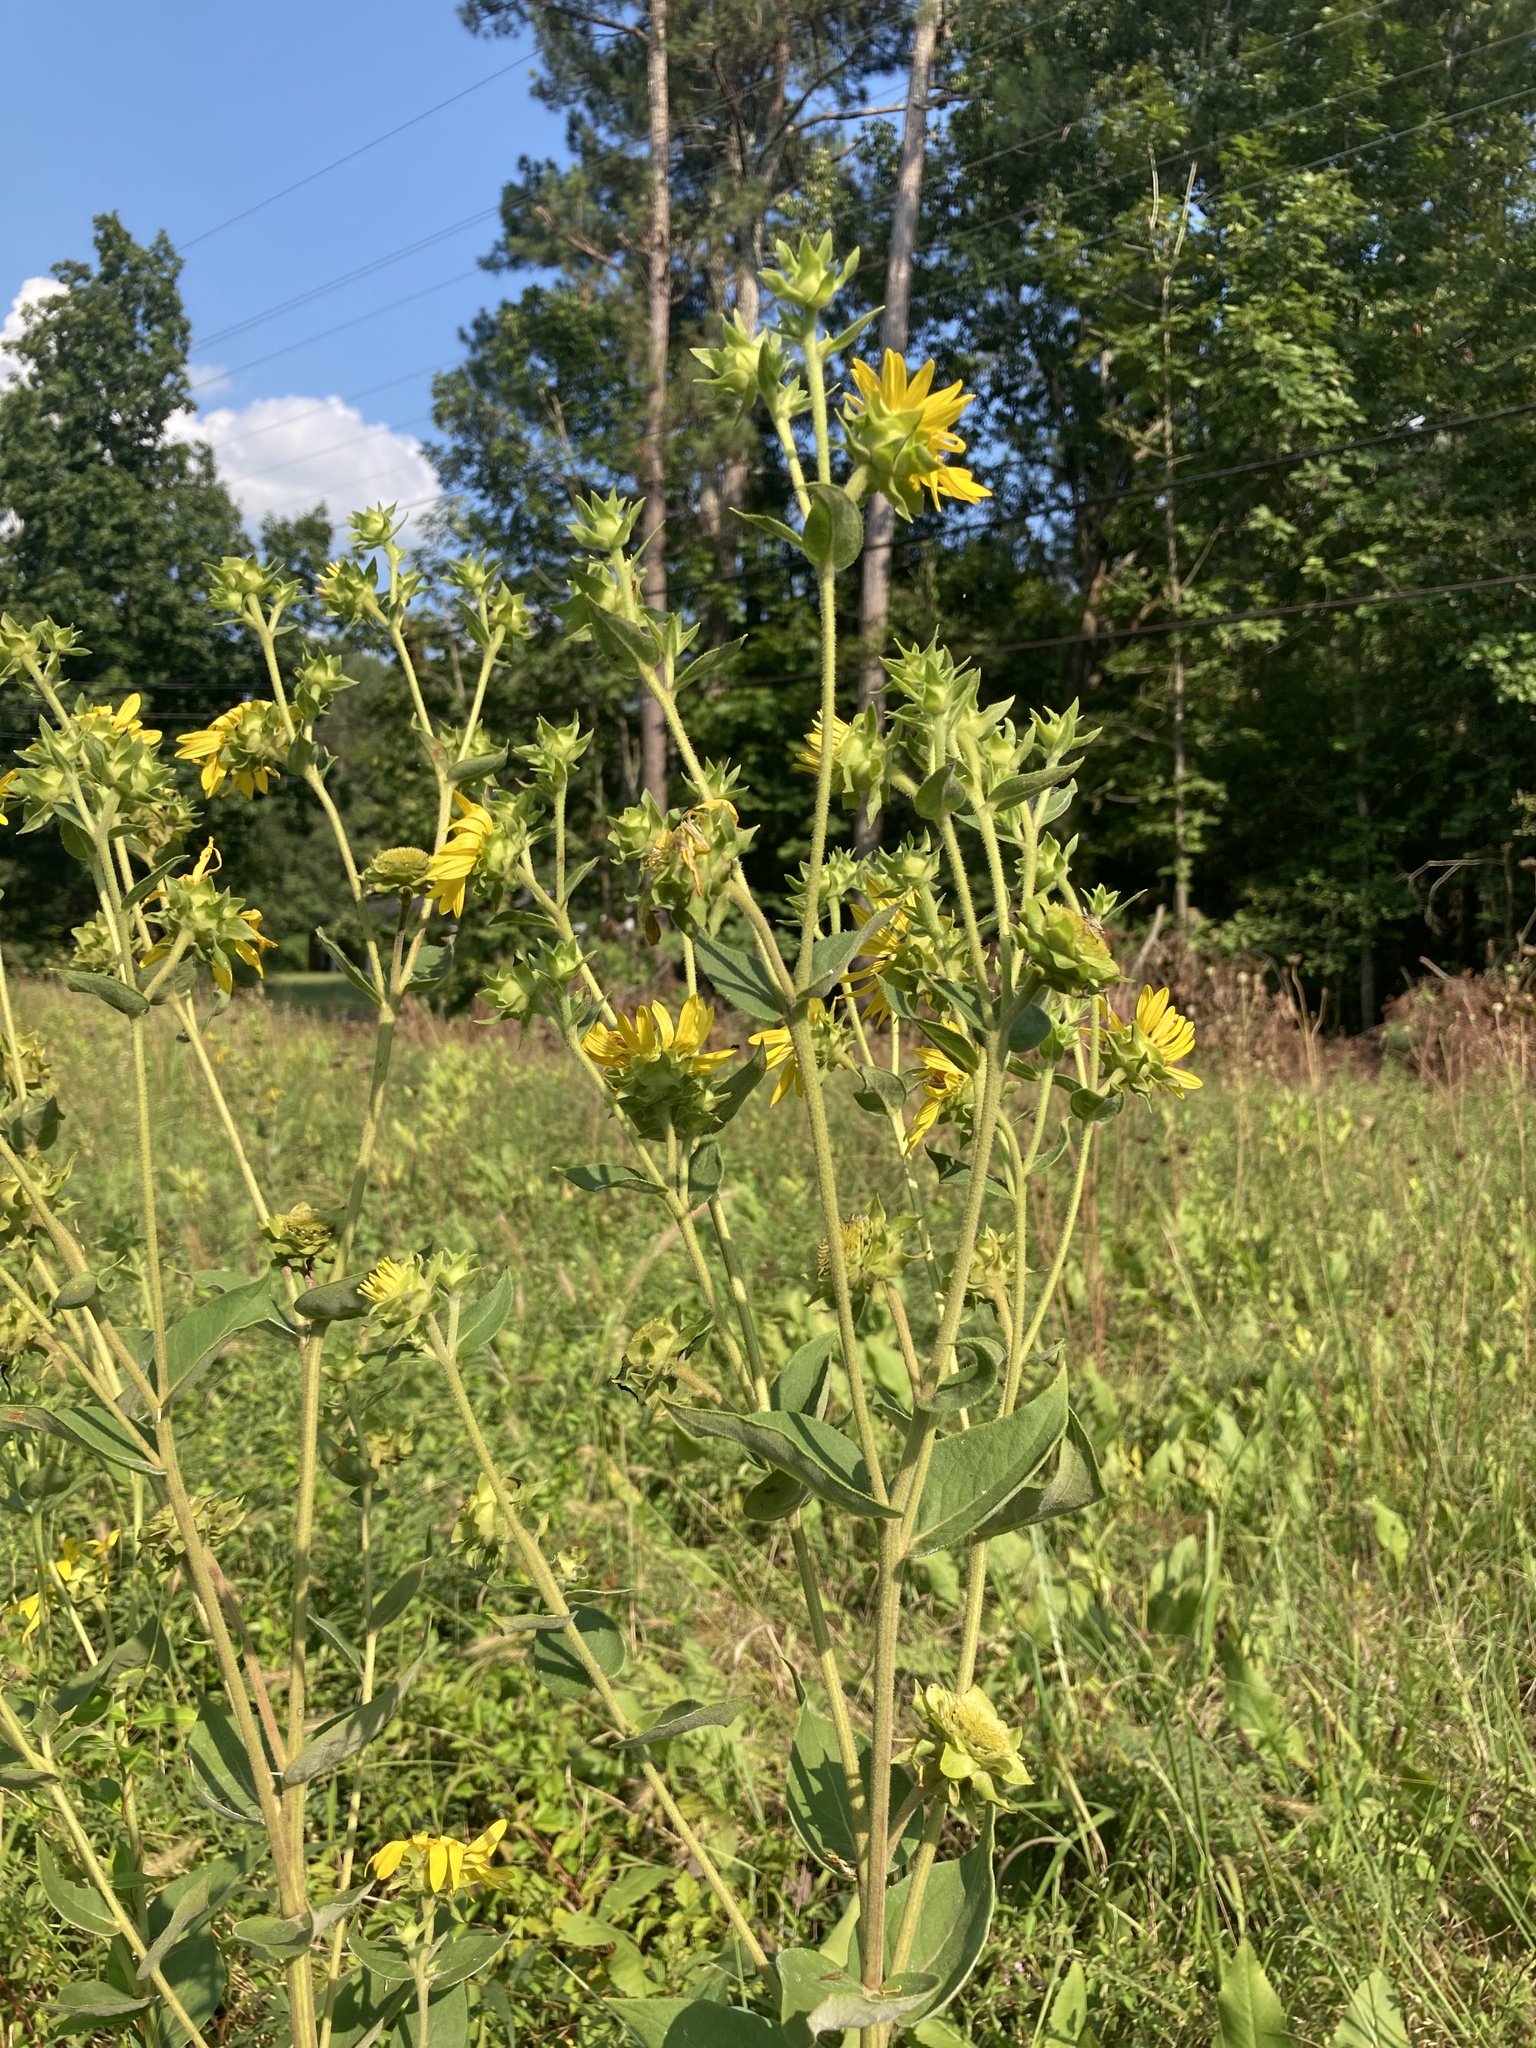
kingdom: Plantae
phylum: Tracheophyta
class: Magnoliopsida
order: Asterales
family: Asteraceae
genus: Silphium
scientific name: Silphium radula
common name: Roughleaf rosinweed
